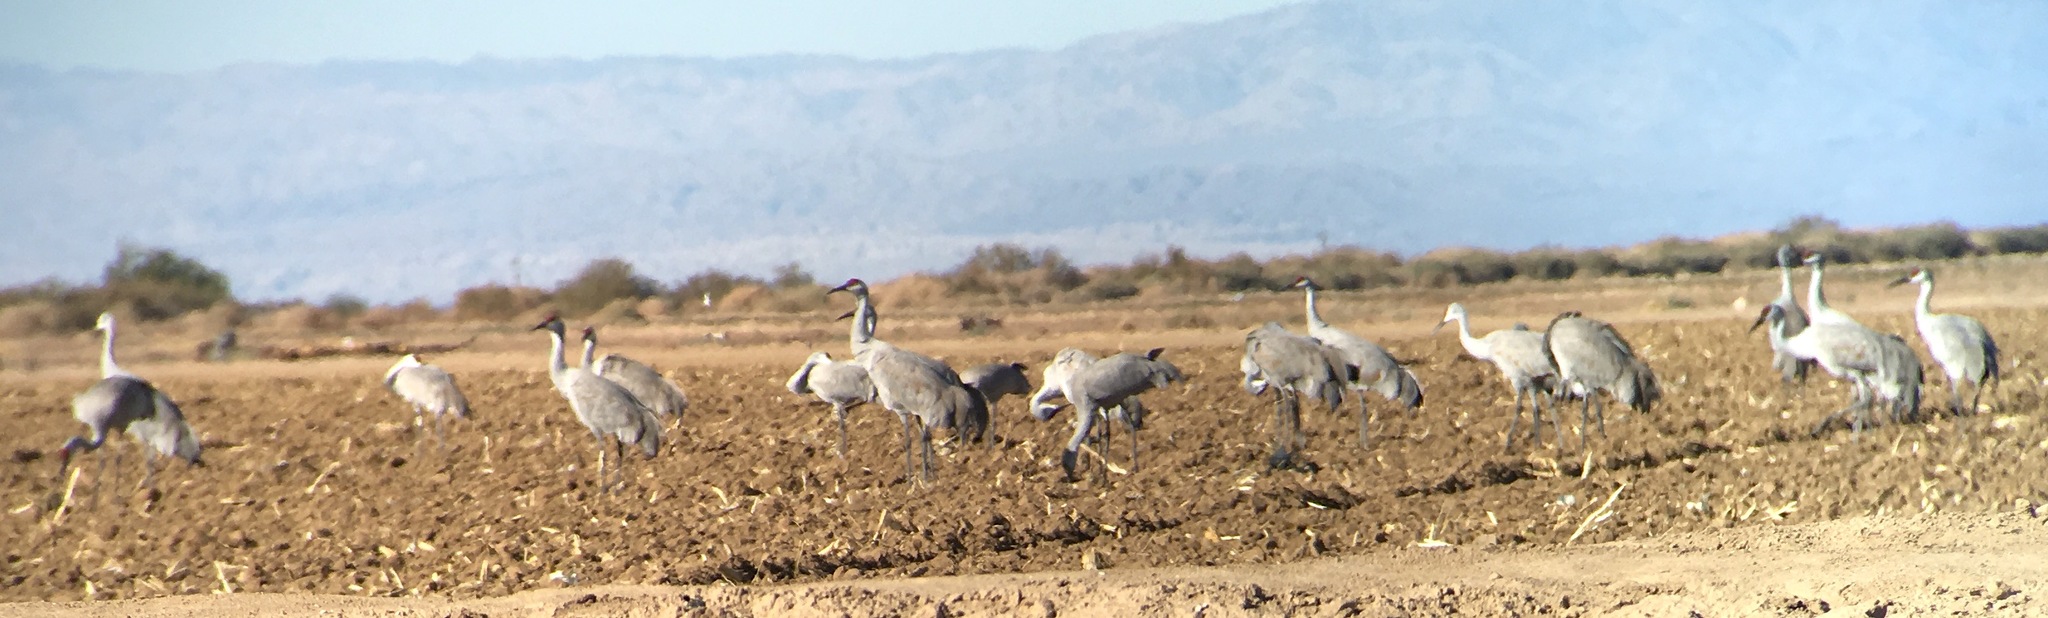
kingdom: Animalia
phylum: Chordata
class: Aves
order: Gruiformes
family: Gruidae
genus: Grus
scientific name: Grus canadensis
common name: Sandhill crane
